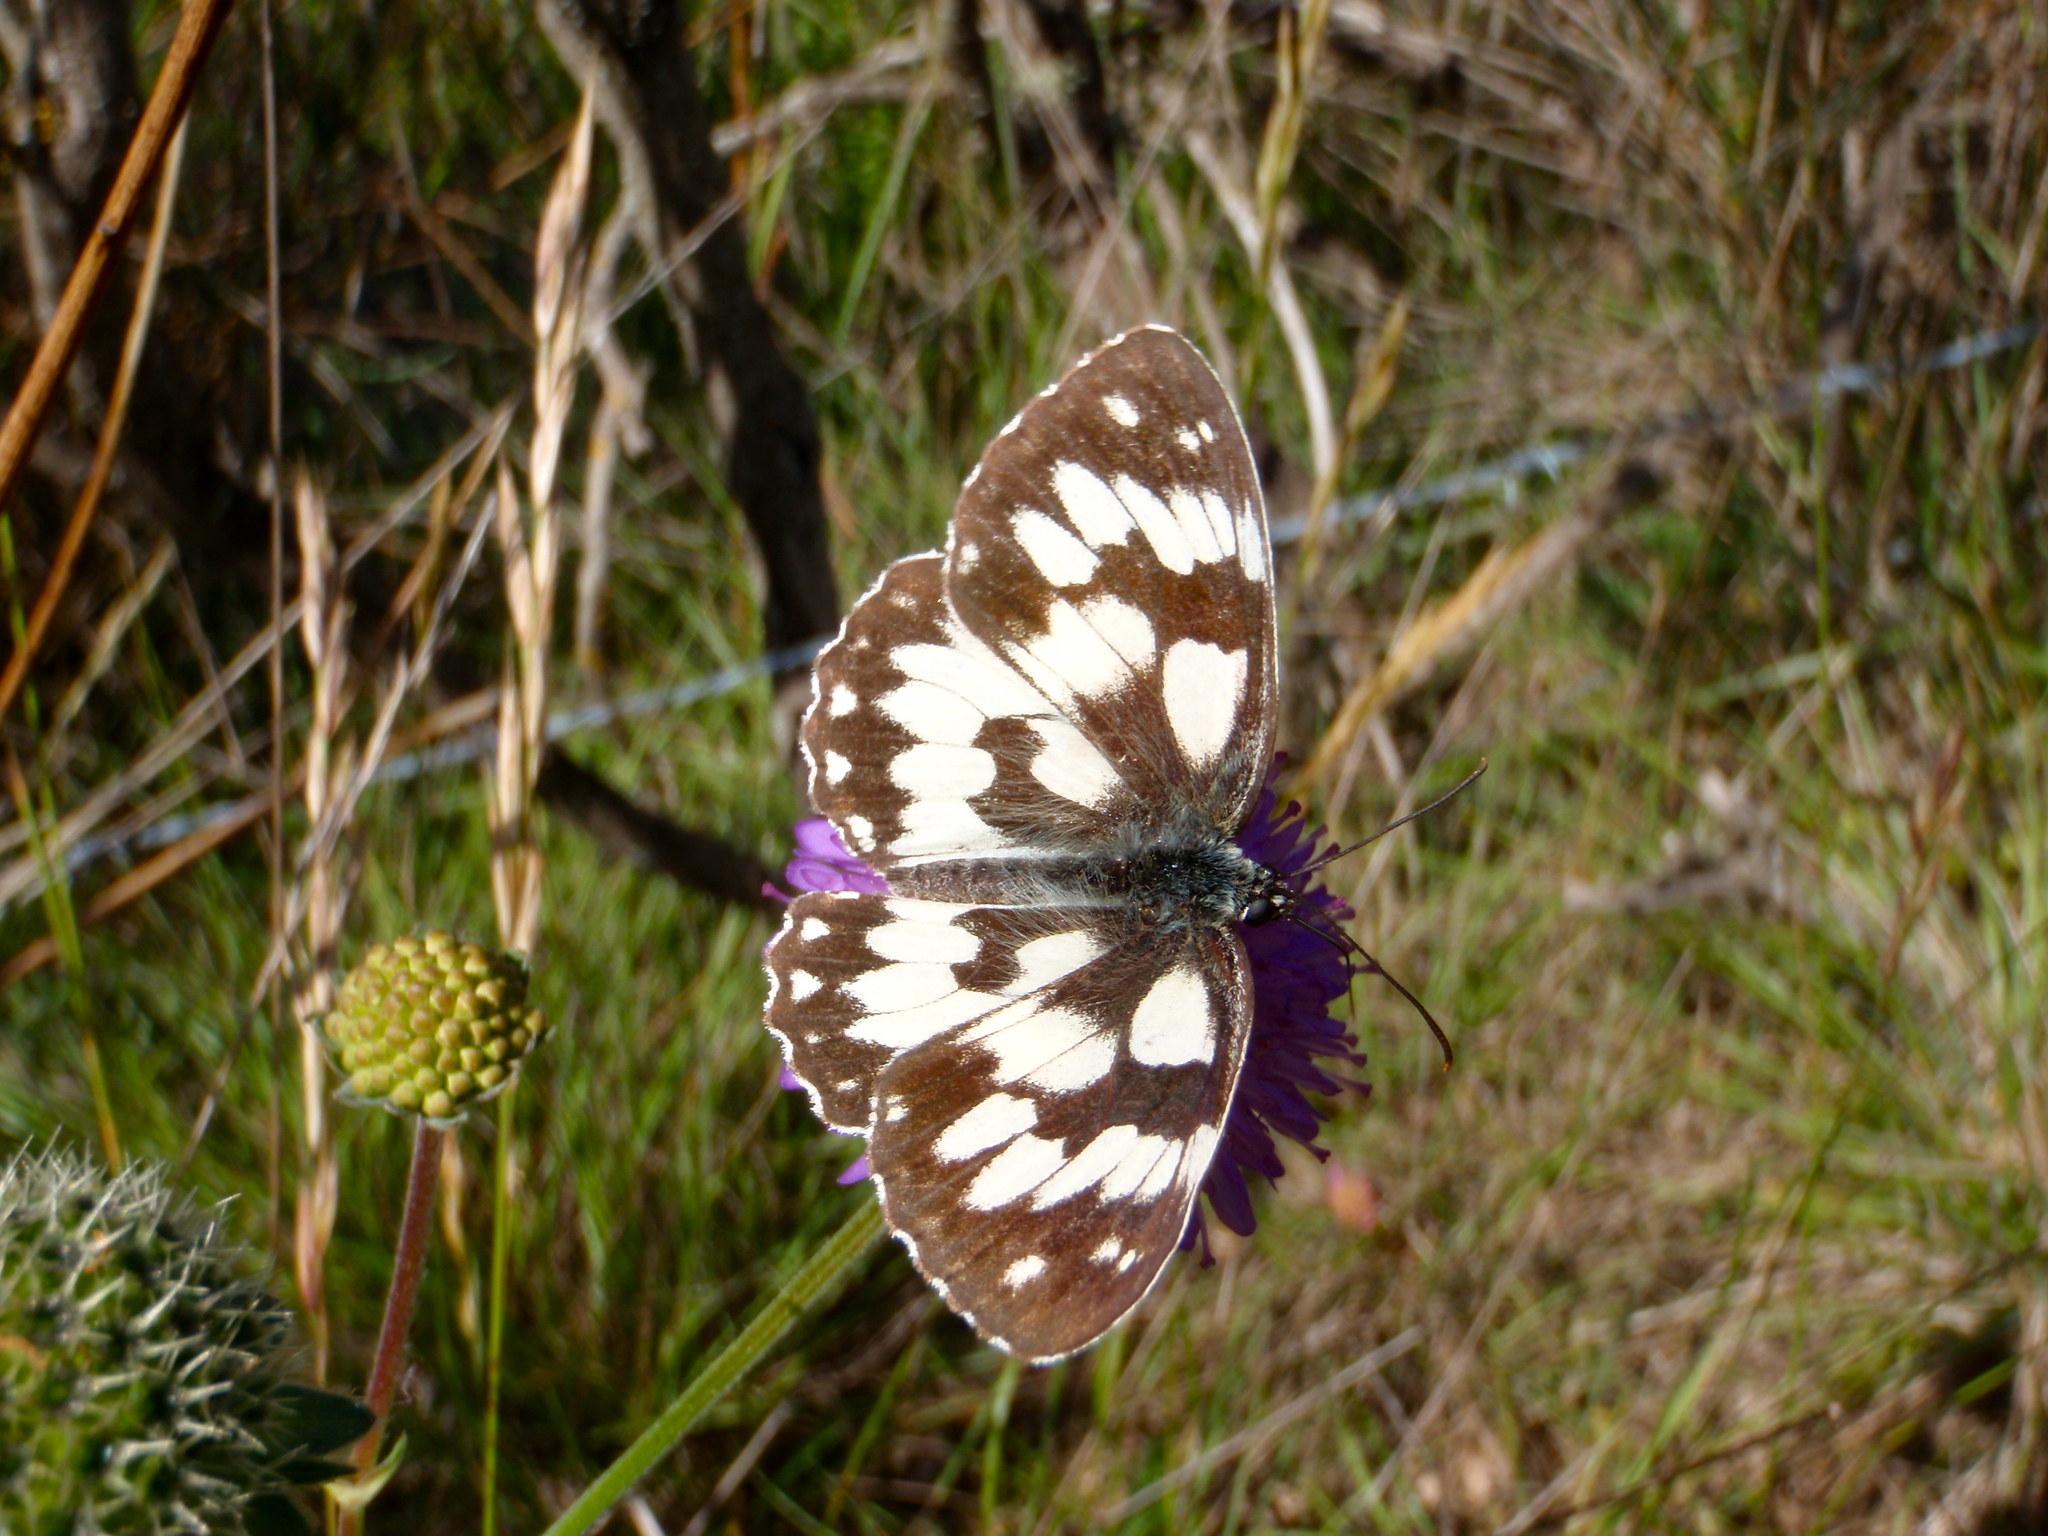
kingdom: Animalia
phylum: Arthropoda
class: Insecta
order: Lepidoptera
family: Nymphalidae
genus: Melanargia
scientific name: Melanargia galathea
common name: Marbled white
